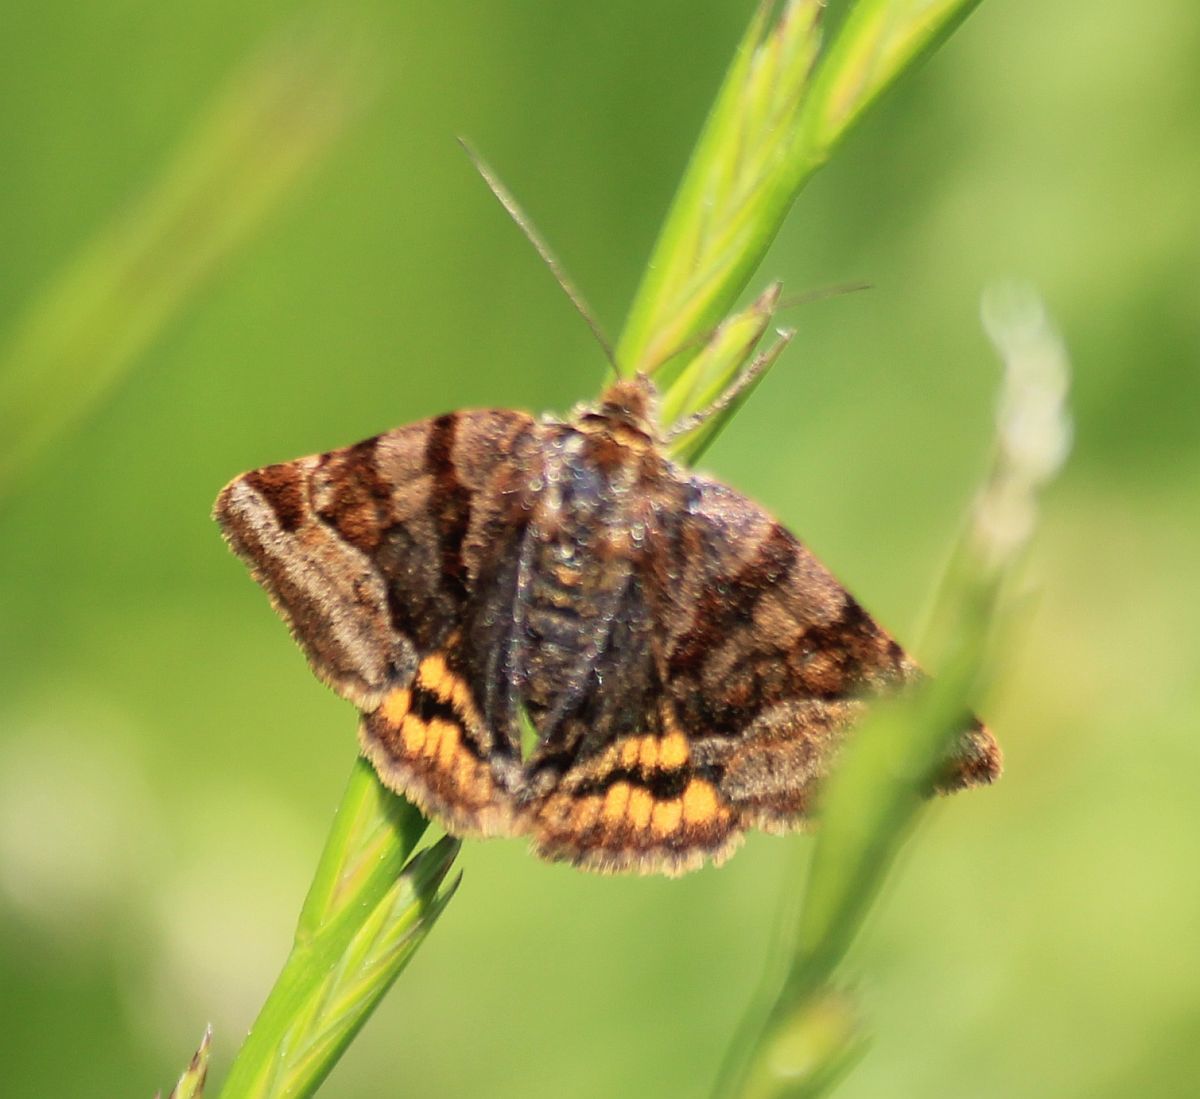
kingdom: Animalia
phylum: Arthropoda
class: Insecta
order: Lepidoptera
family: Erebidae
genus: Euclidia
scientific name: Euclidia glyphica
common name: Burnet companion
